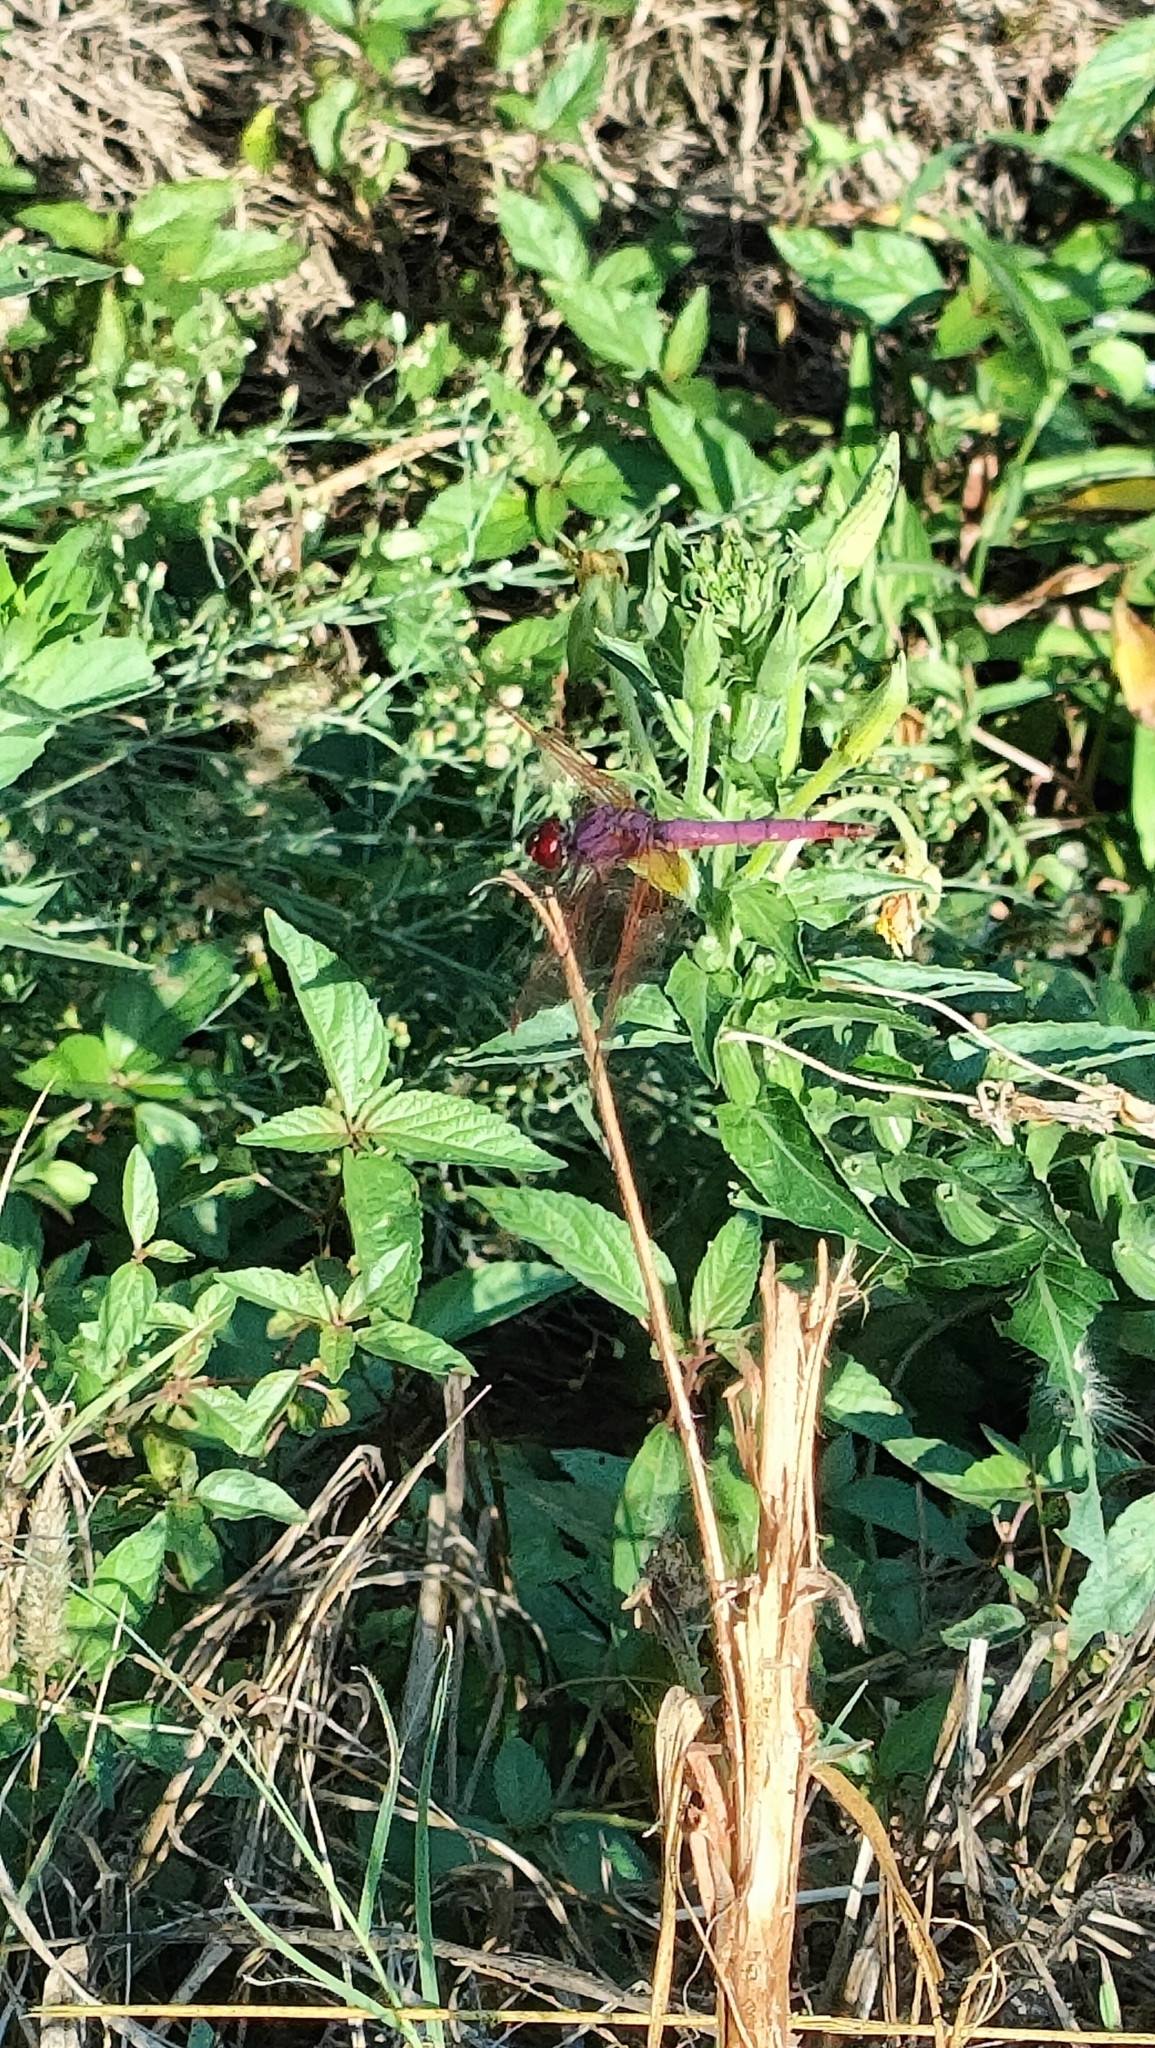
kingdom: Animalia
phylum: Arthropoda
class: Insecta
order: Odonata
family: Libellulidae
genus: Trithemis
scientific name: Trithemis annulata
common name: Violet dropwing
